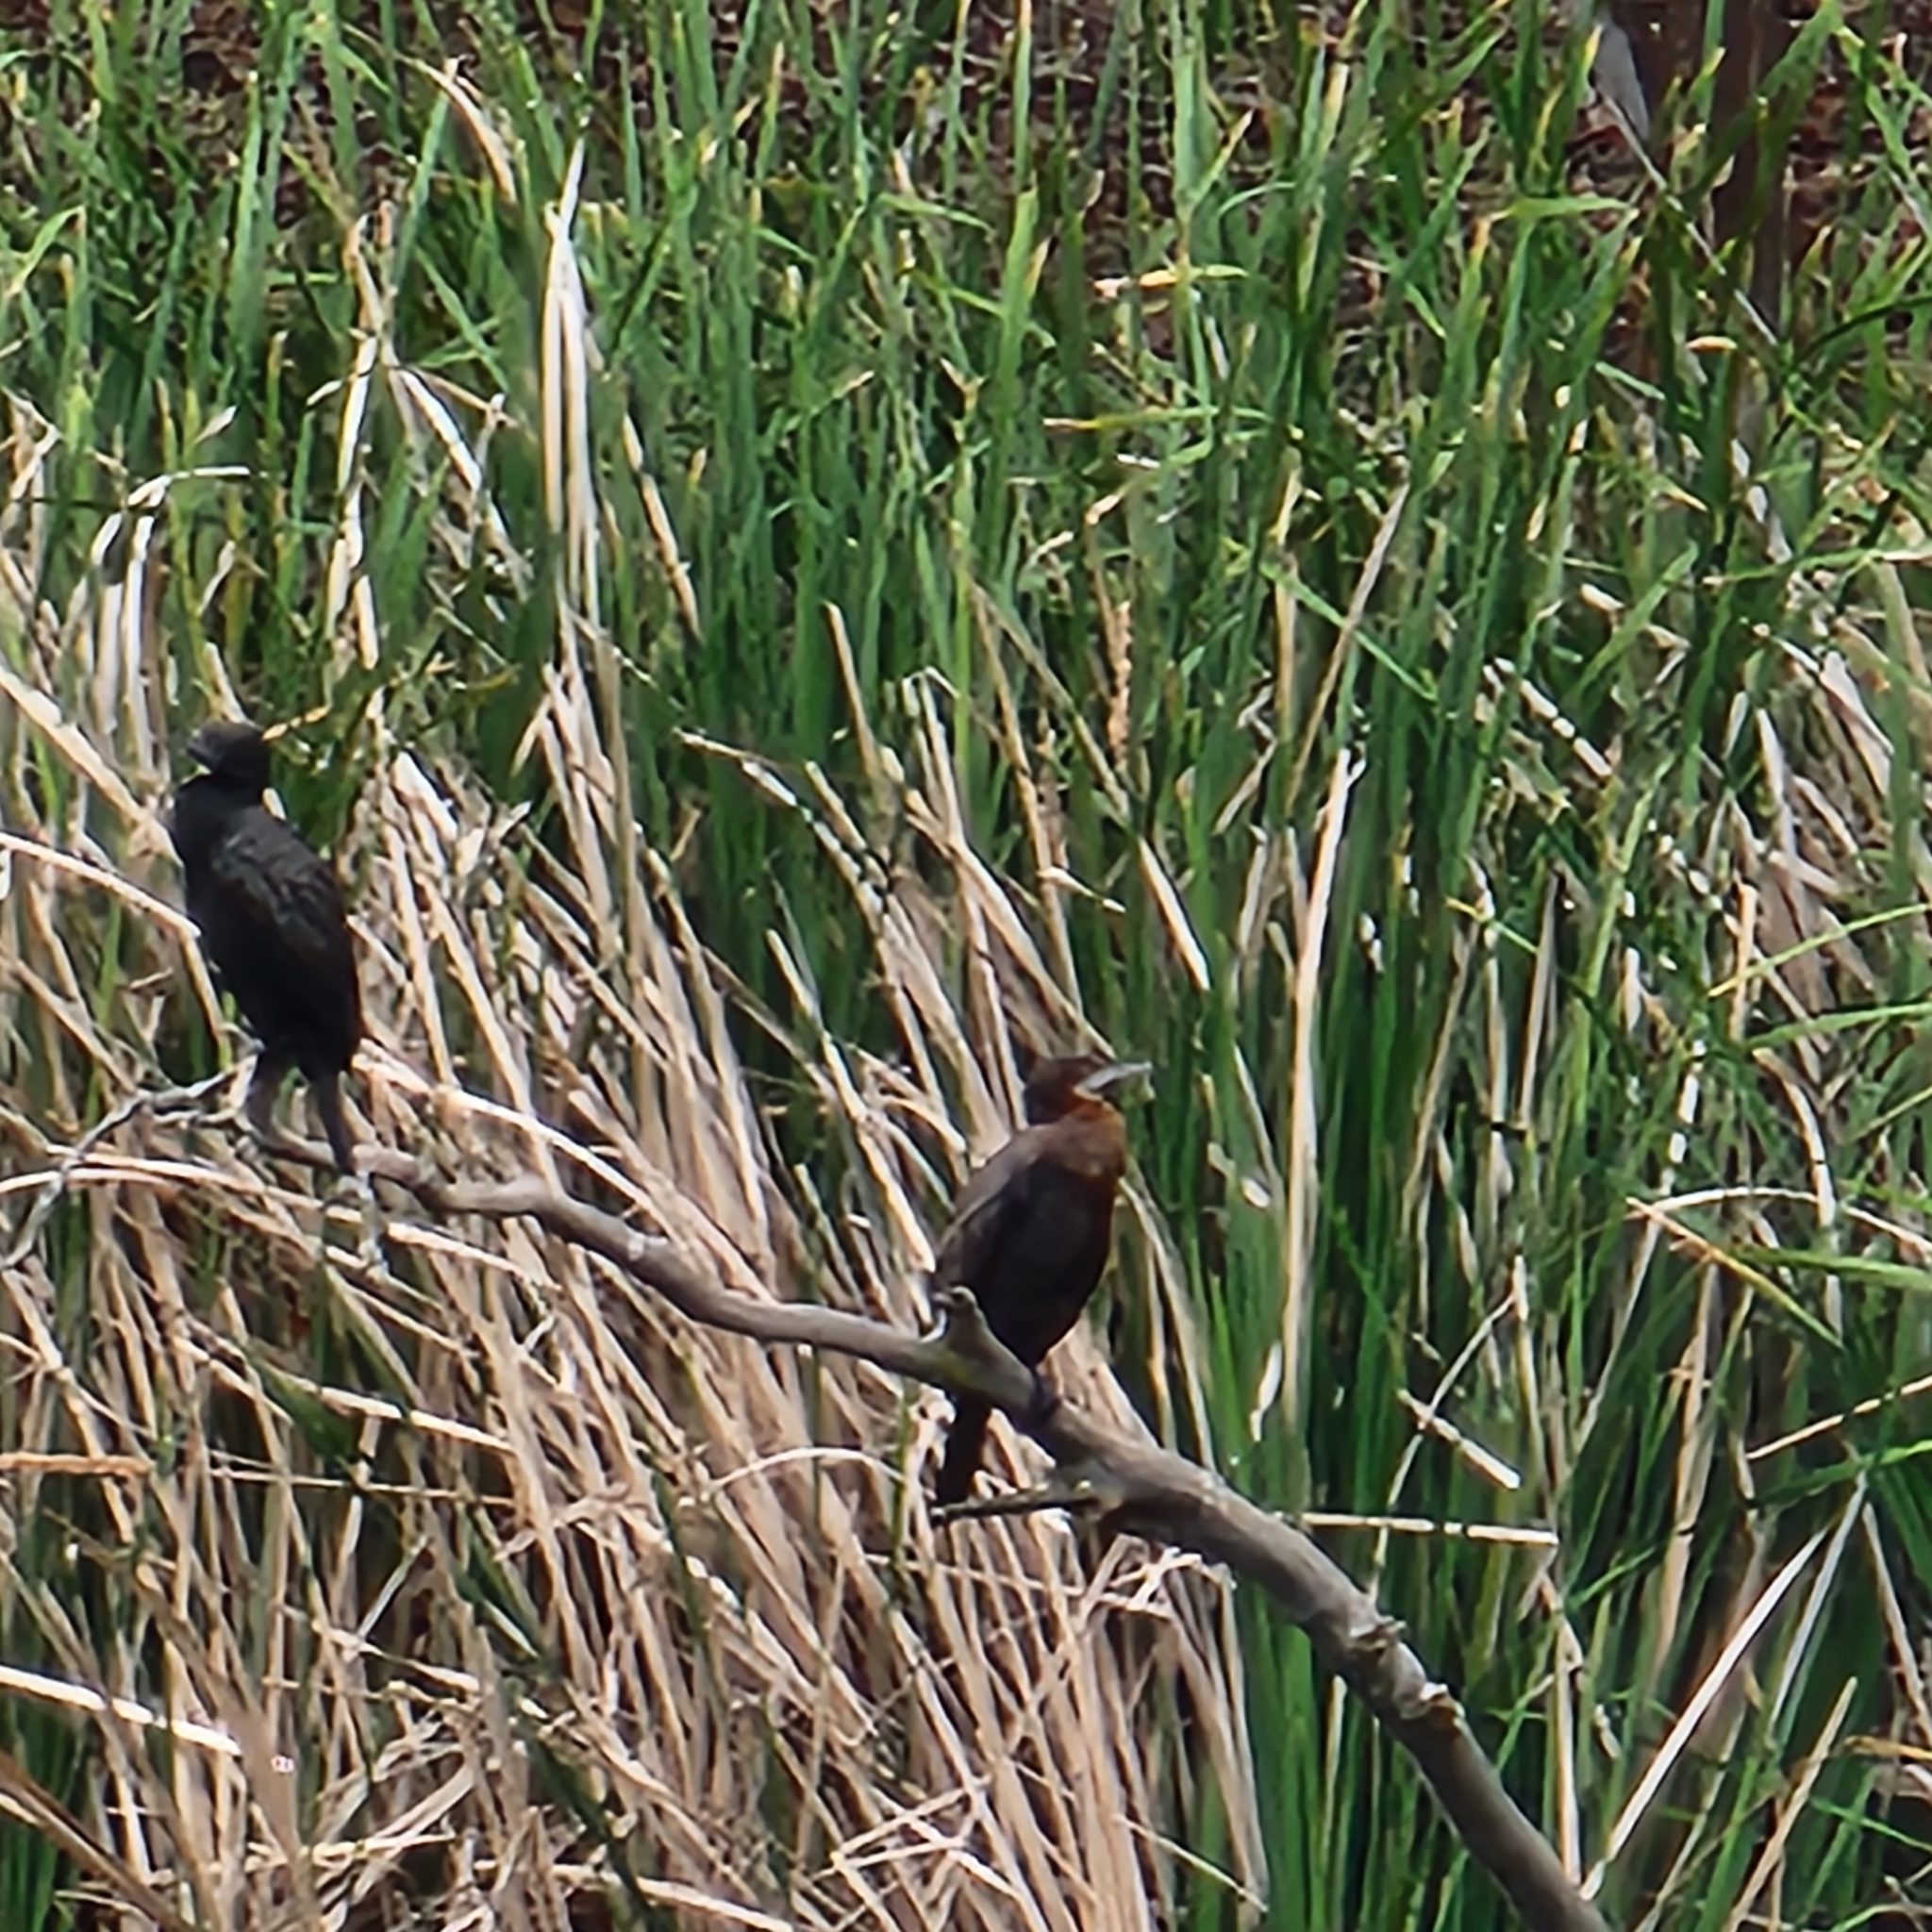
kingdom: Animalia
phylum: Chordata
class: Aves
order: Suliformes
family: Phalacrocoracidae
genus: Phalacrocorax
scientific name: Phalacrocorax sulcirostris
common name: Little black cormorant
